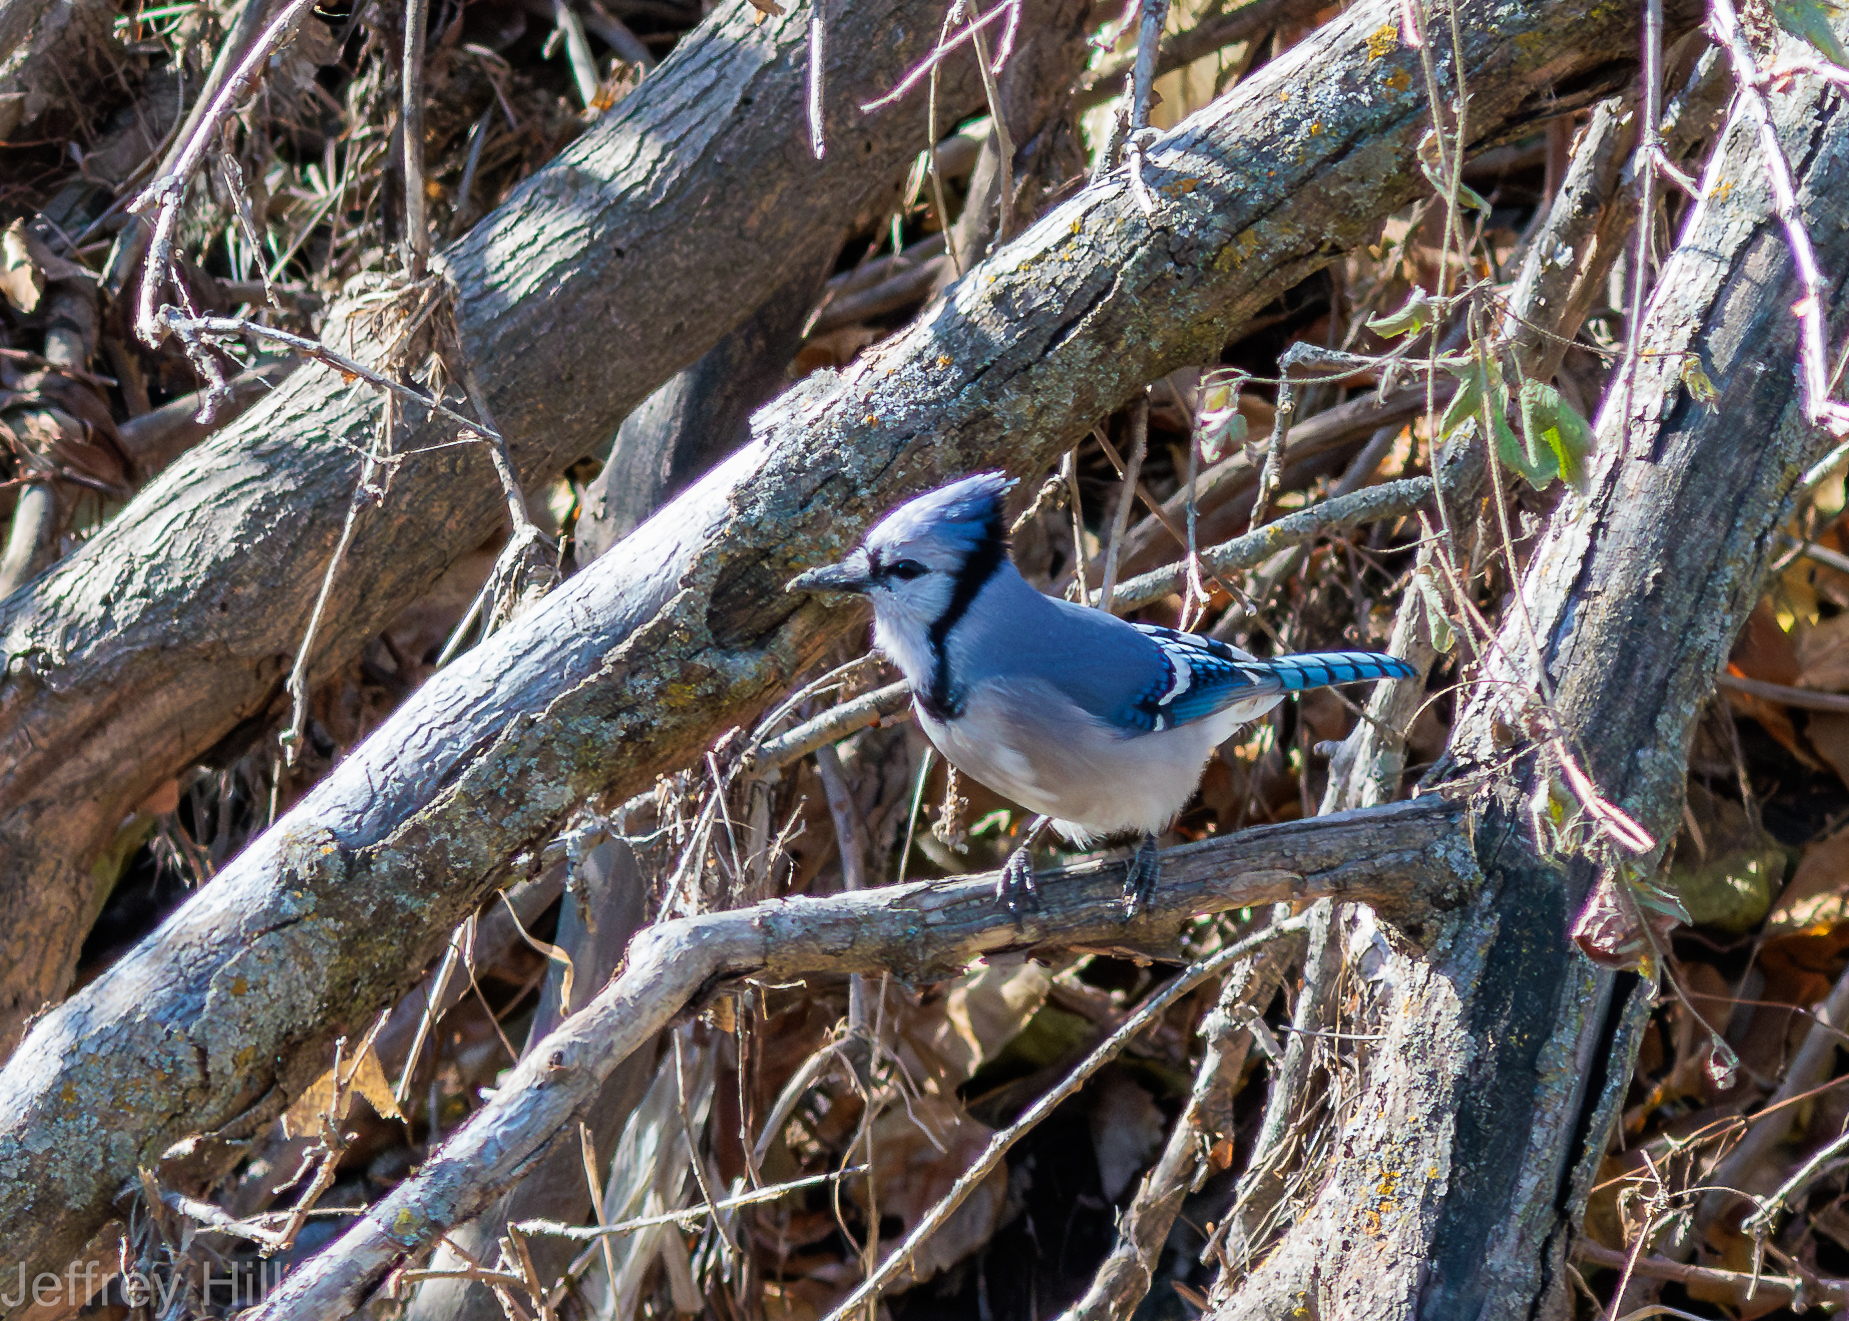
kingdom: Animalia
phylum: Chordata
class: Aves
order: Passeriformes
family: Corvidae
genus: Cyanocitta
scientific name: Cyanocitta cristata
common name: Blue jay
